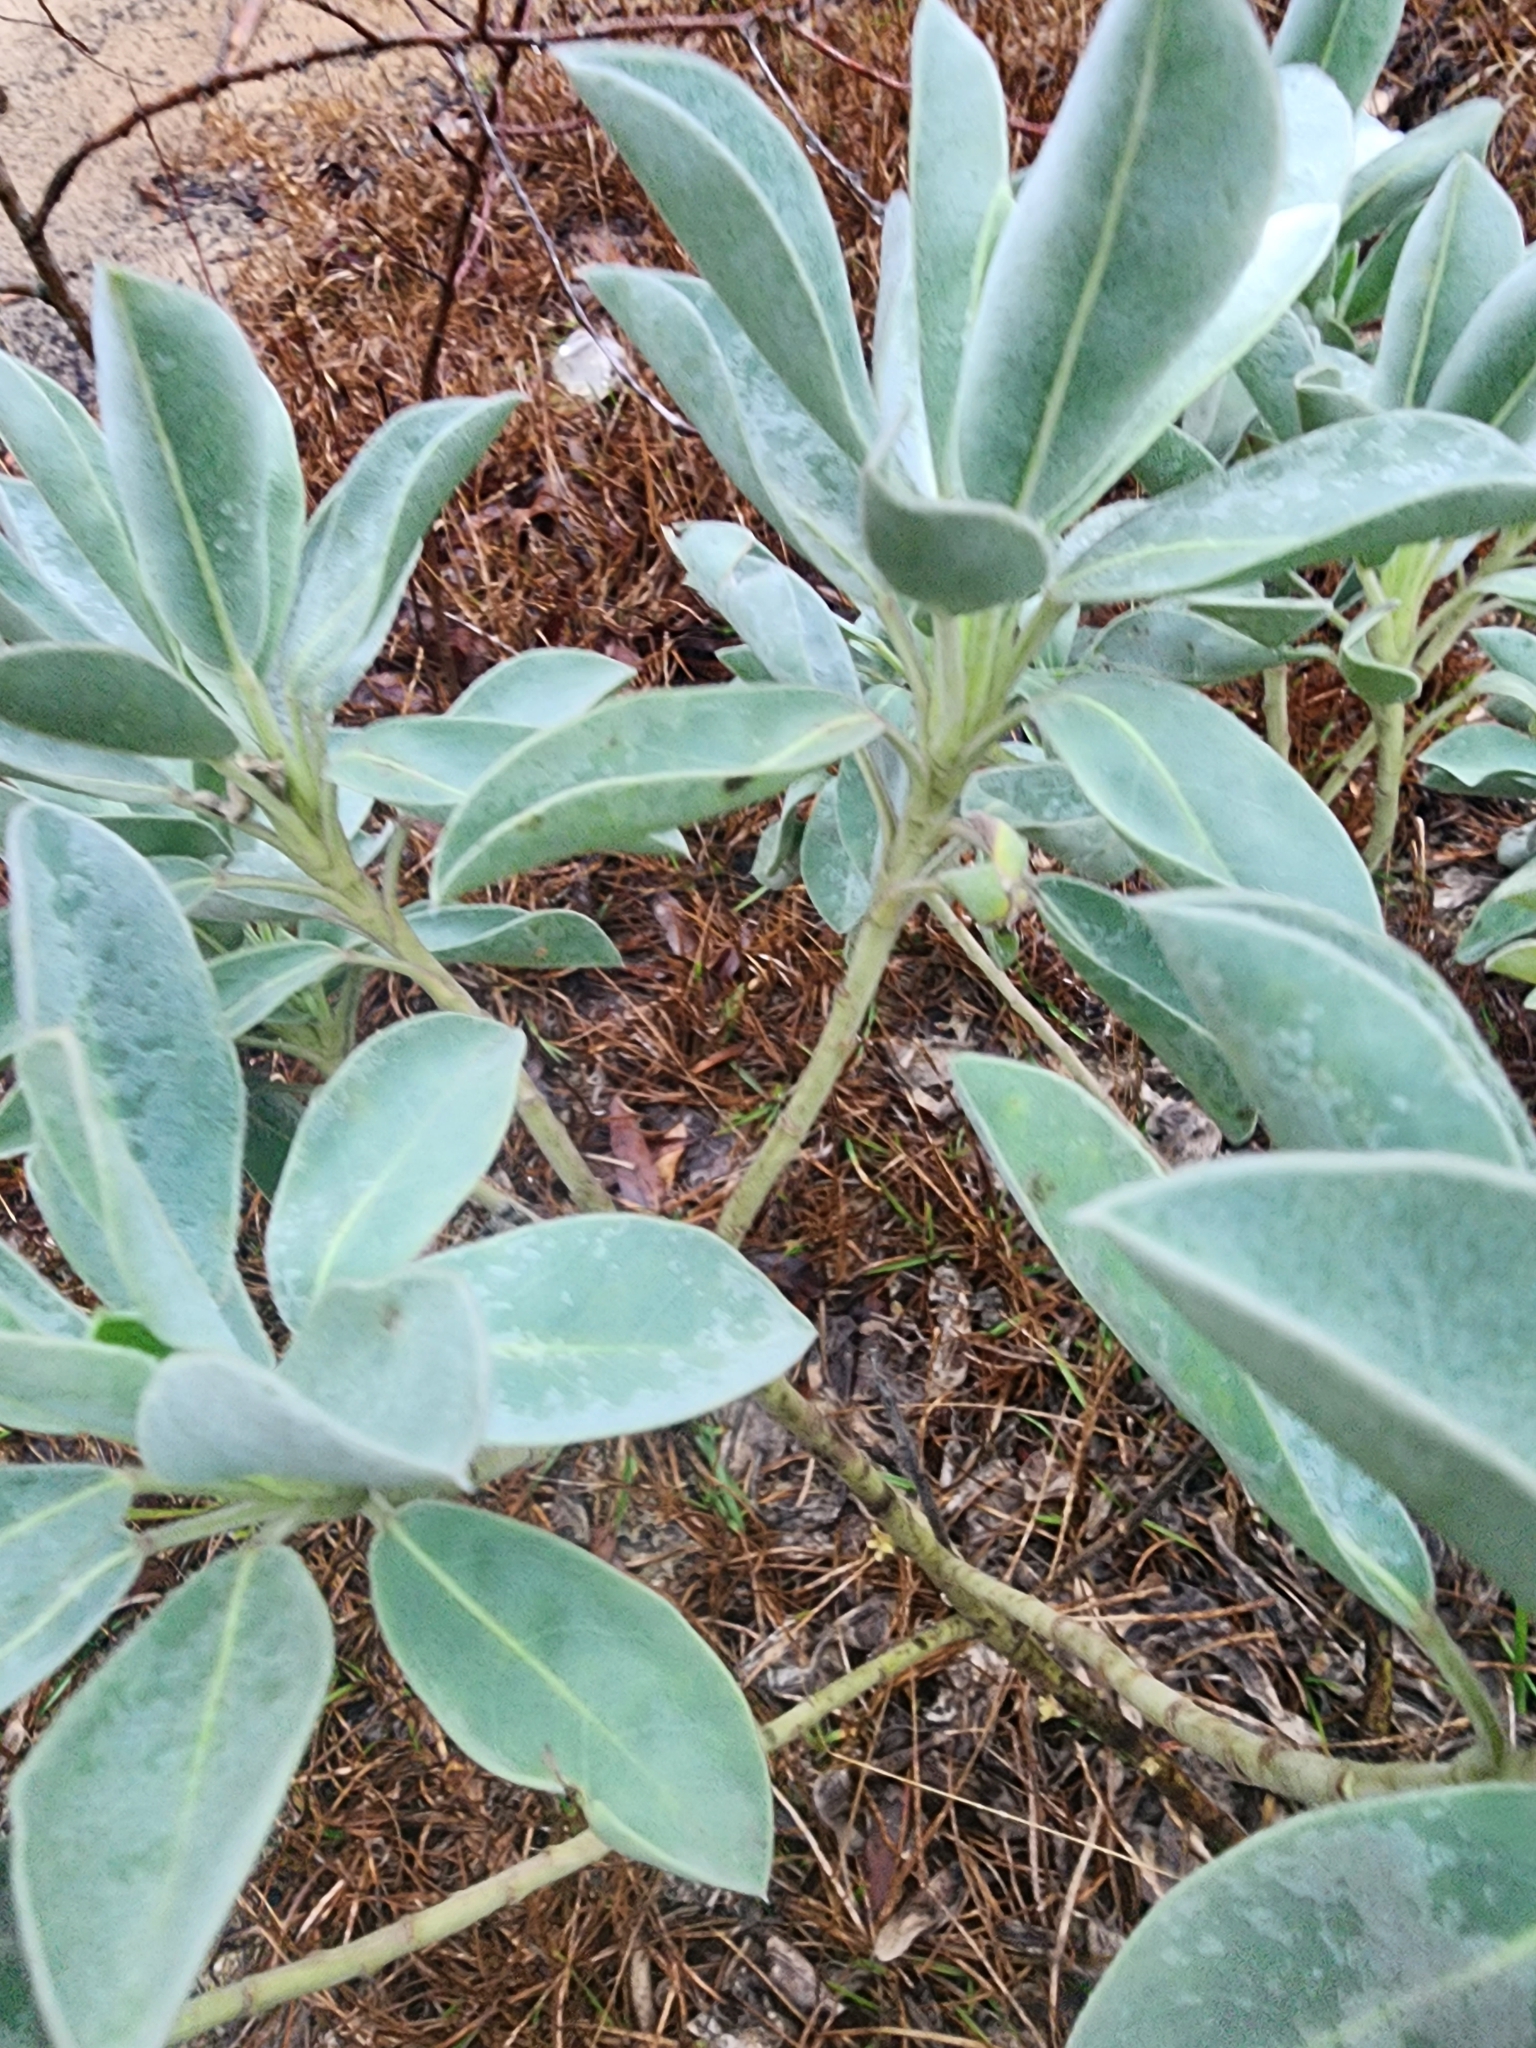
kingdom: Plantae
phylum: Tracheophyta
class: Magnoliopsida
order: Fabales
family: Fabaceae
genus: Lupinus
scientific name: Lupinus westianus
